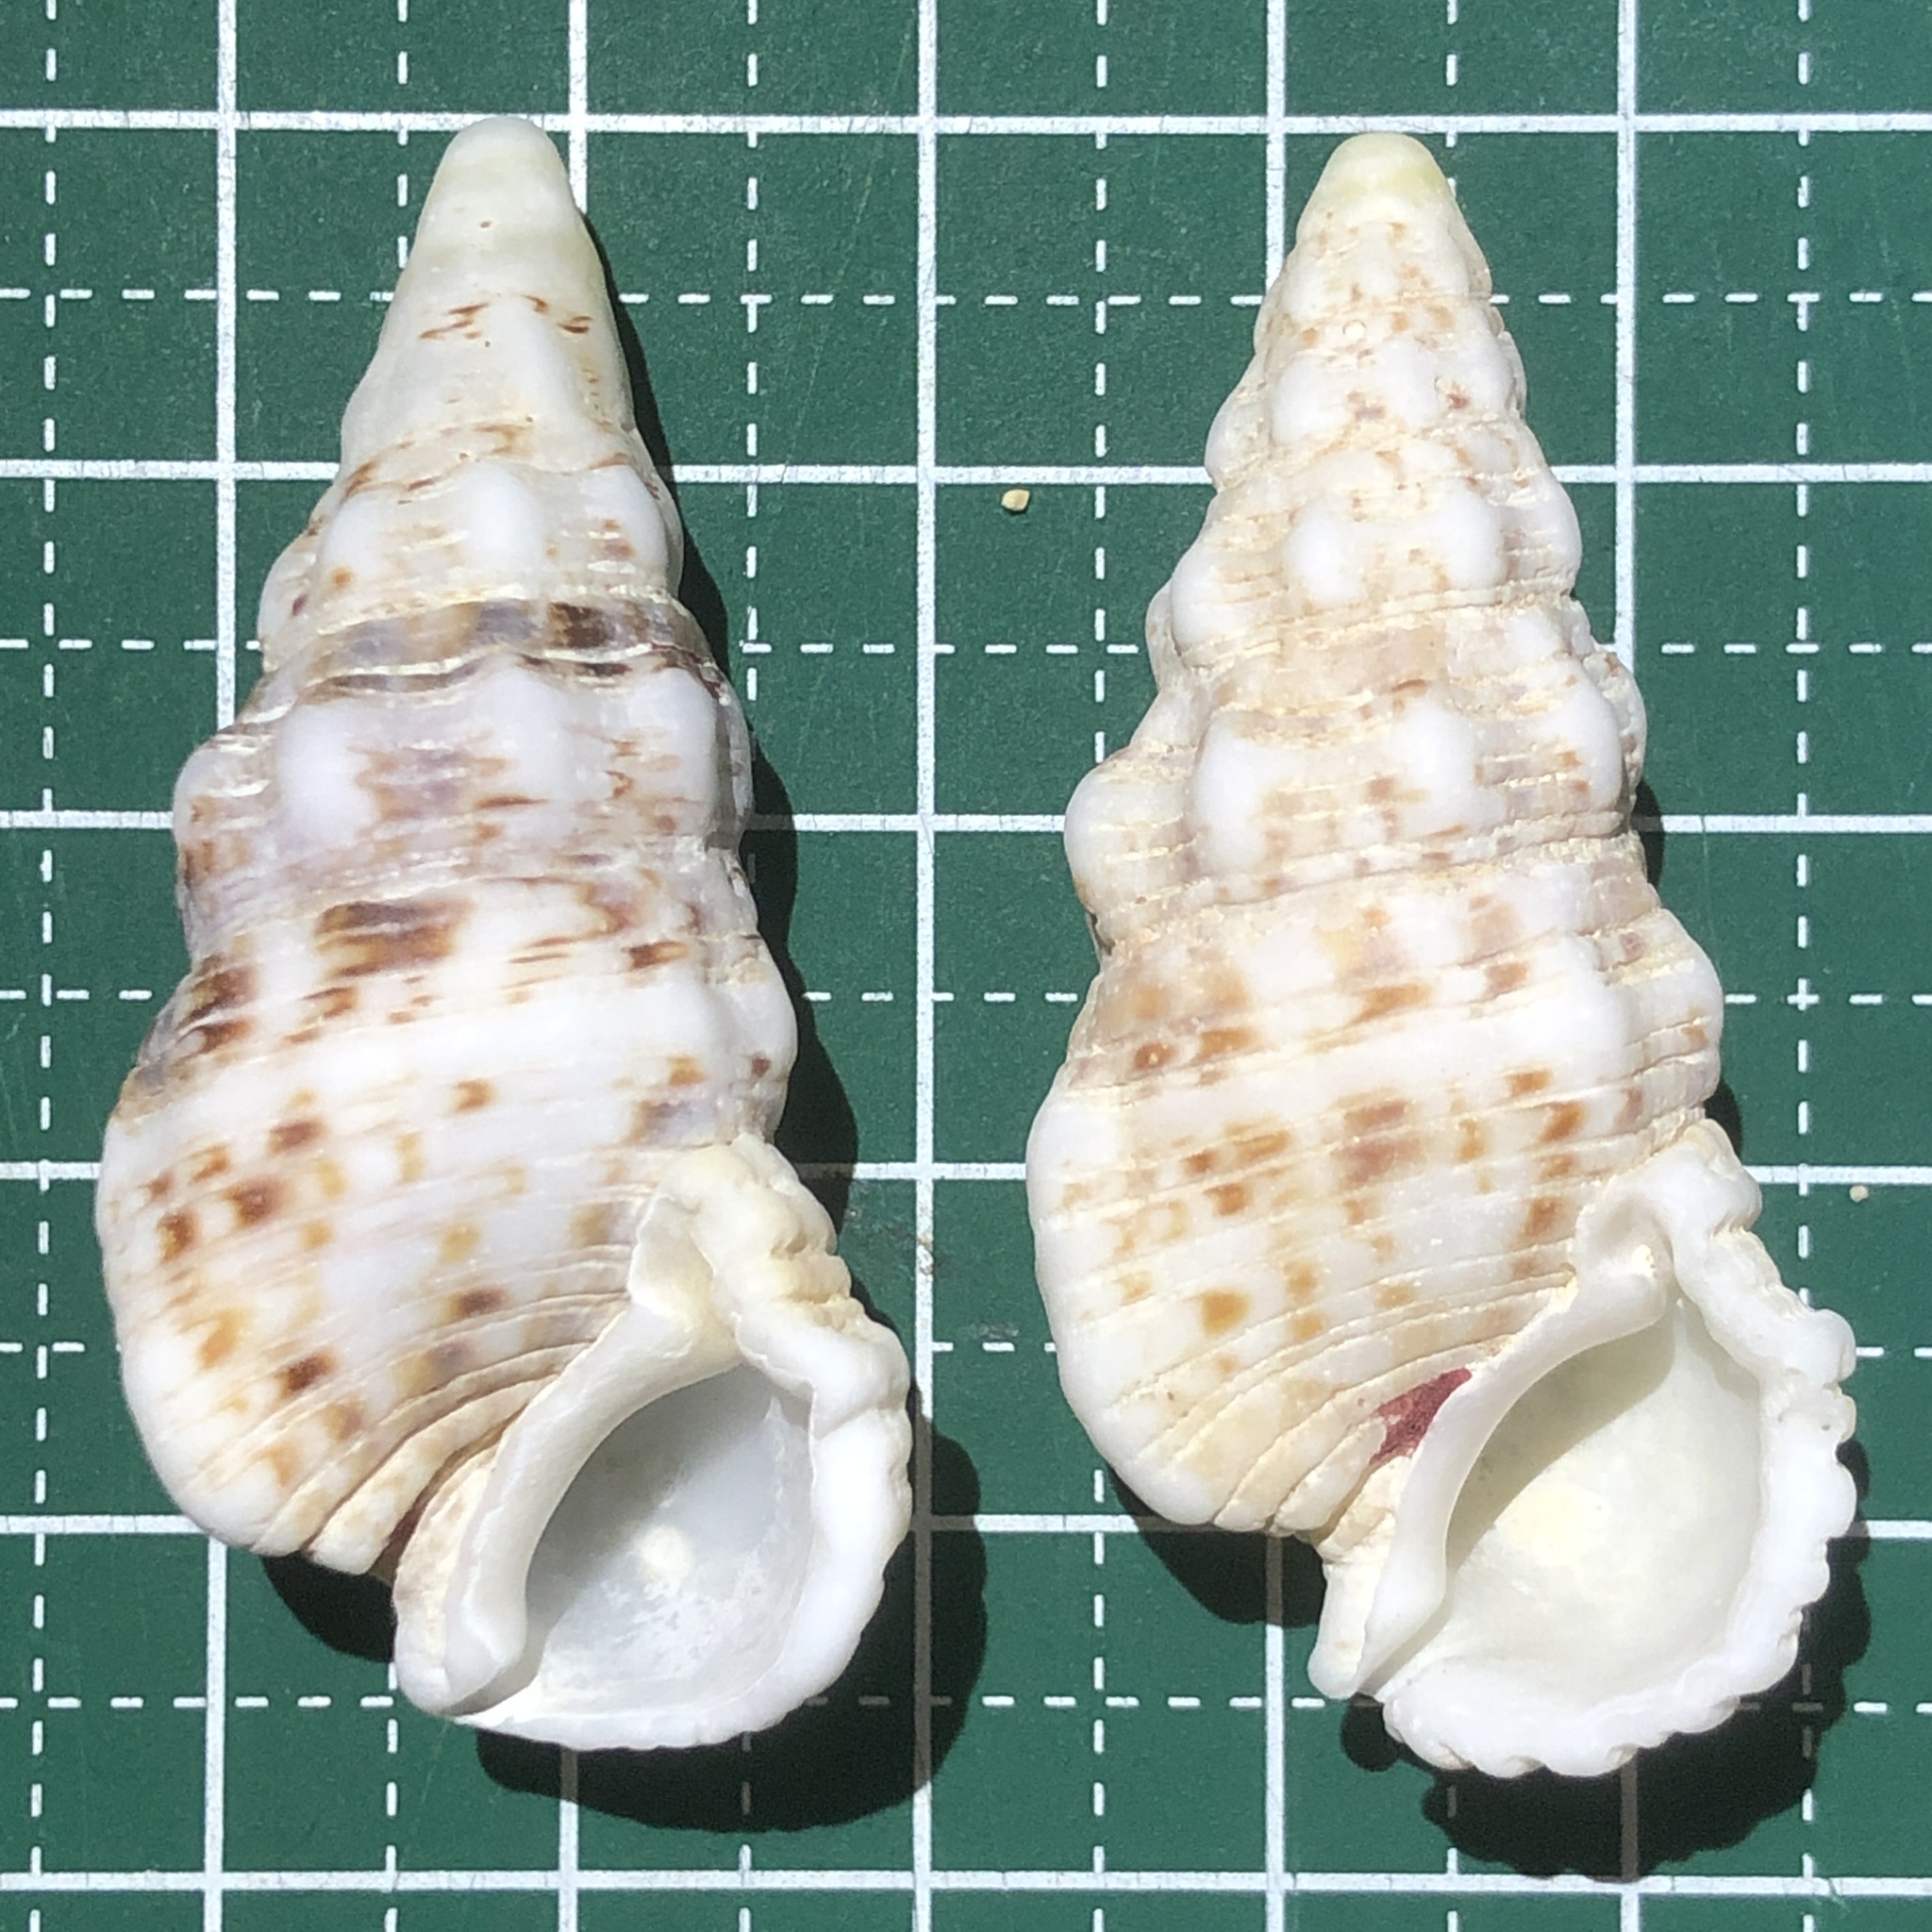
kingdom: Animalia
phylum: Mollusca
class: Gastropoda
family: Cerithiidae
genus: Cerithium
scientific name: Cerithium echinatum
